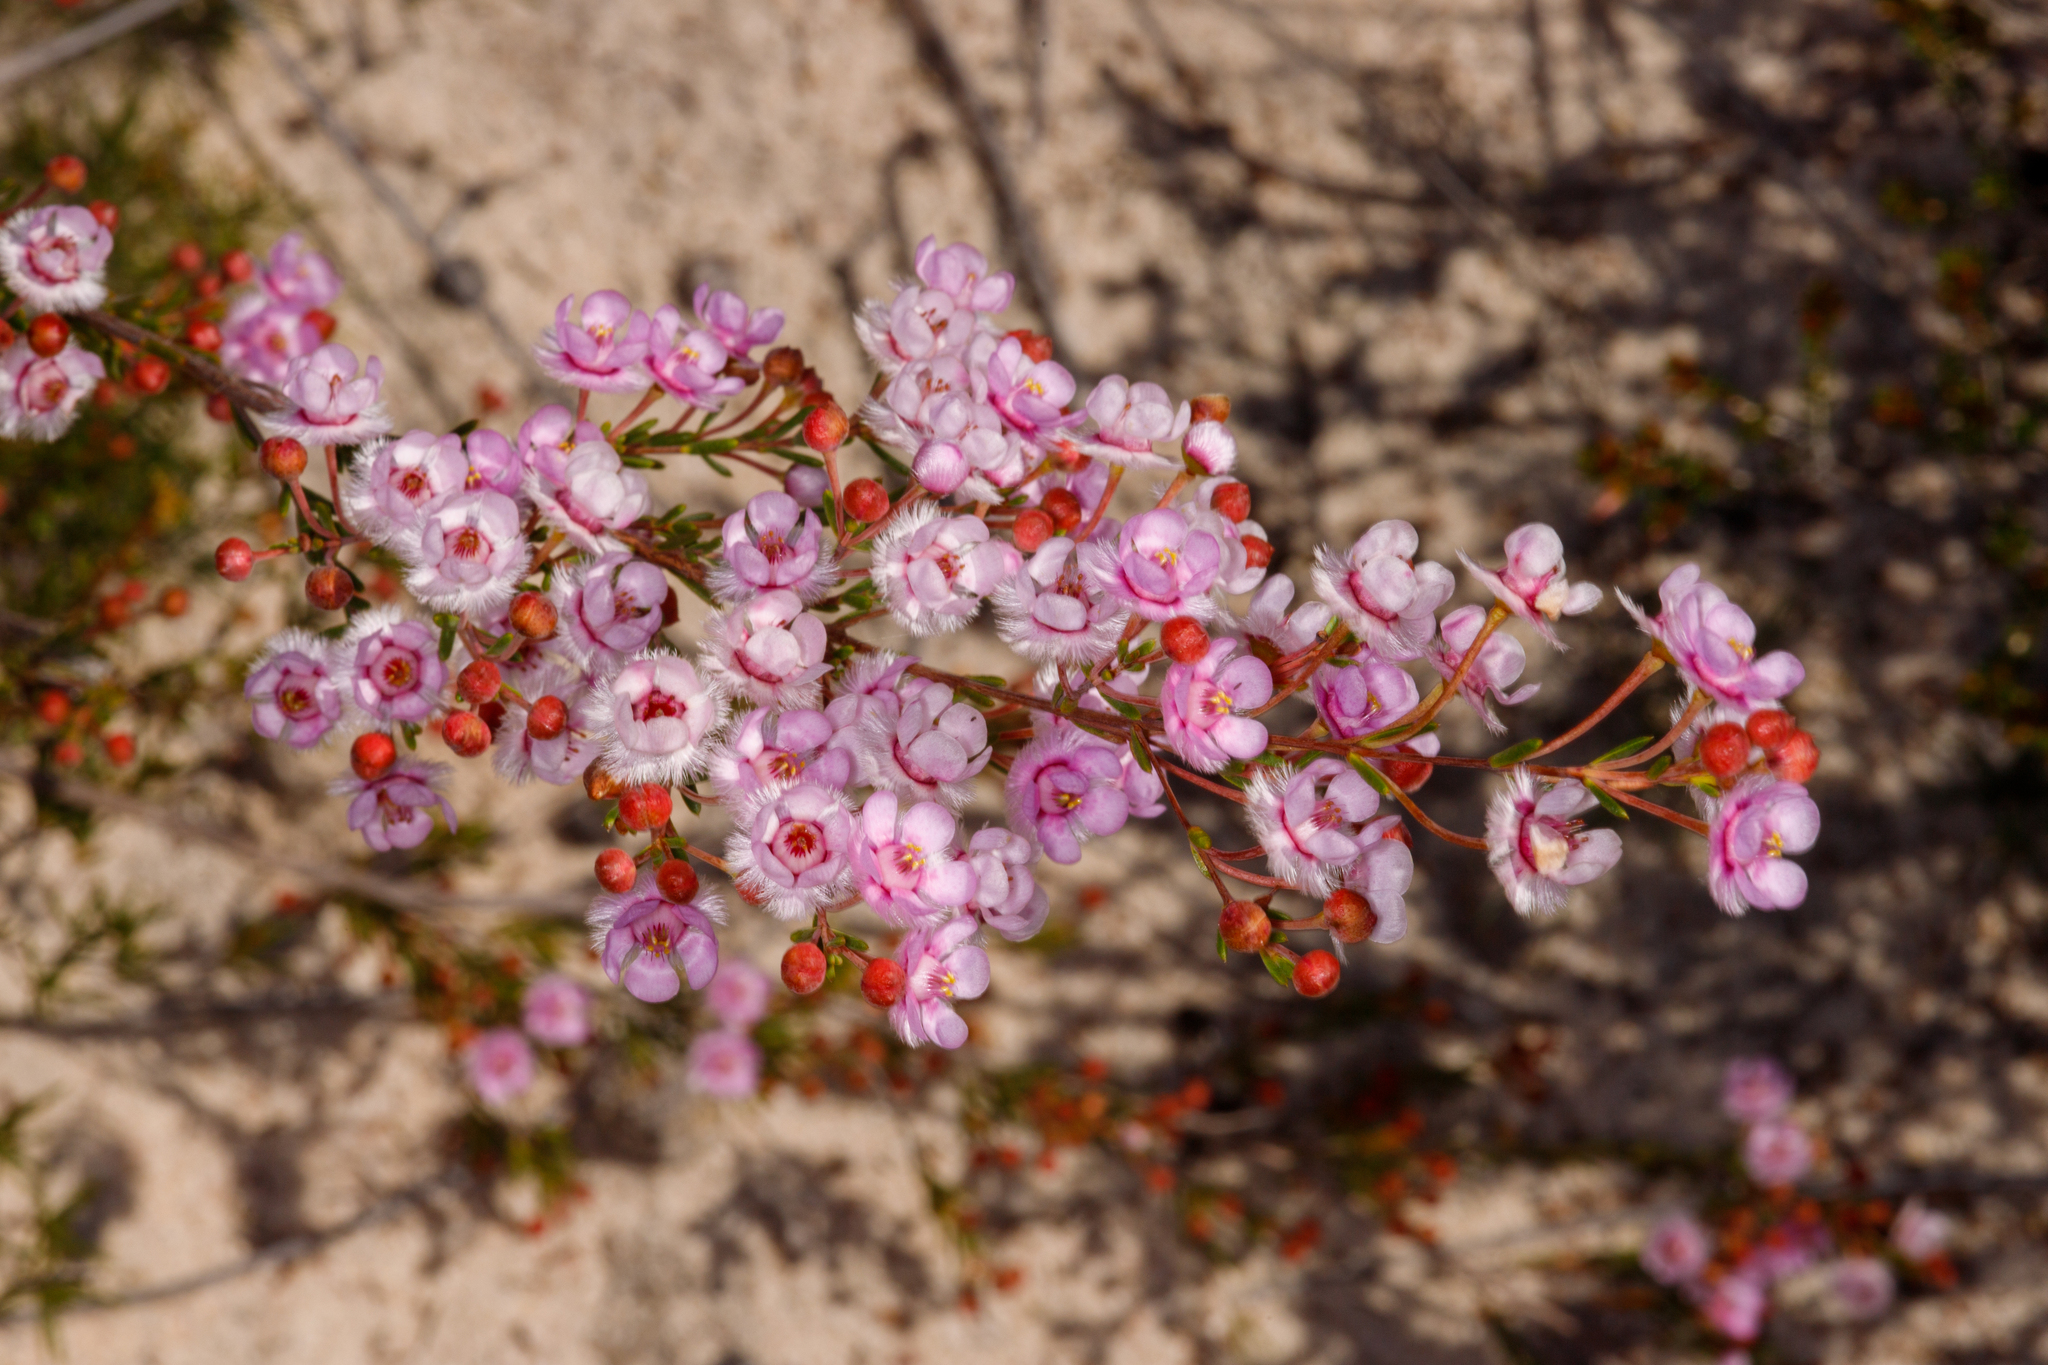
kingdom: Plantae
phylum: Tracheophyta
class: Magnoliopsida
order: Myrtales
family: Myrtaceae
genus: Verticordia
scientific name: Verticordia picta
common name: Painted feather-flower
